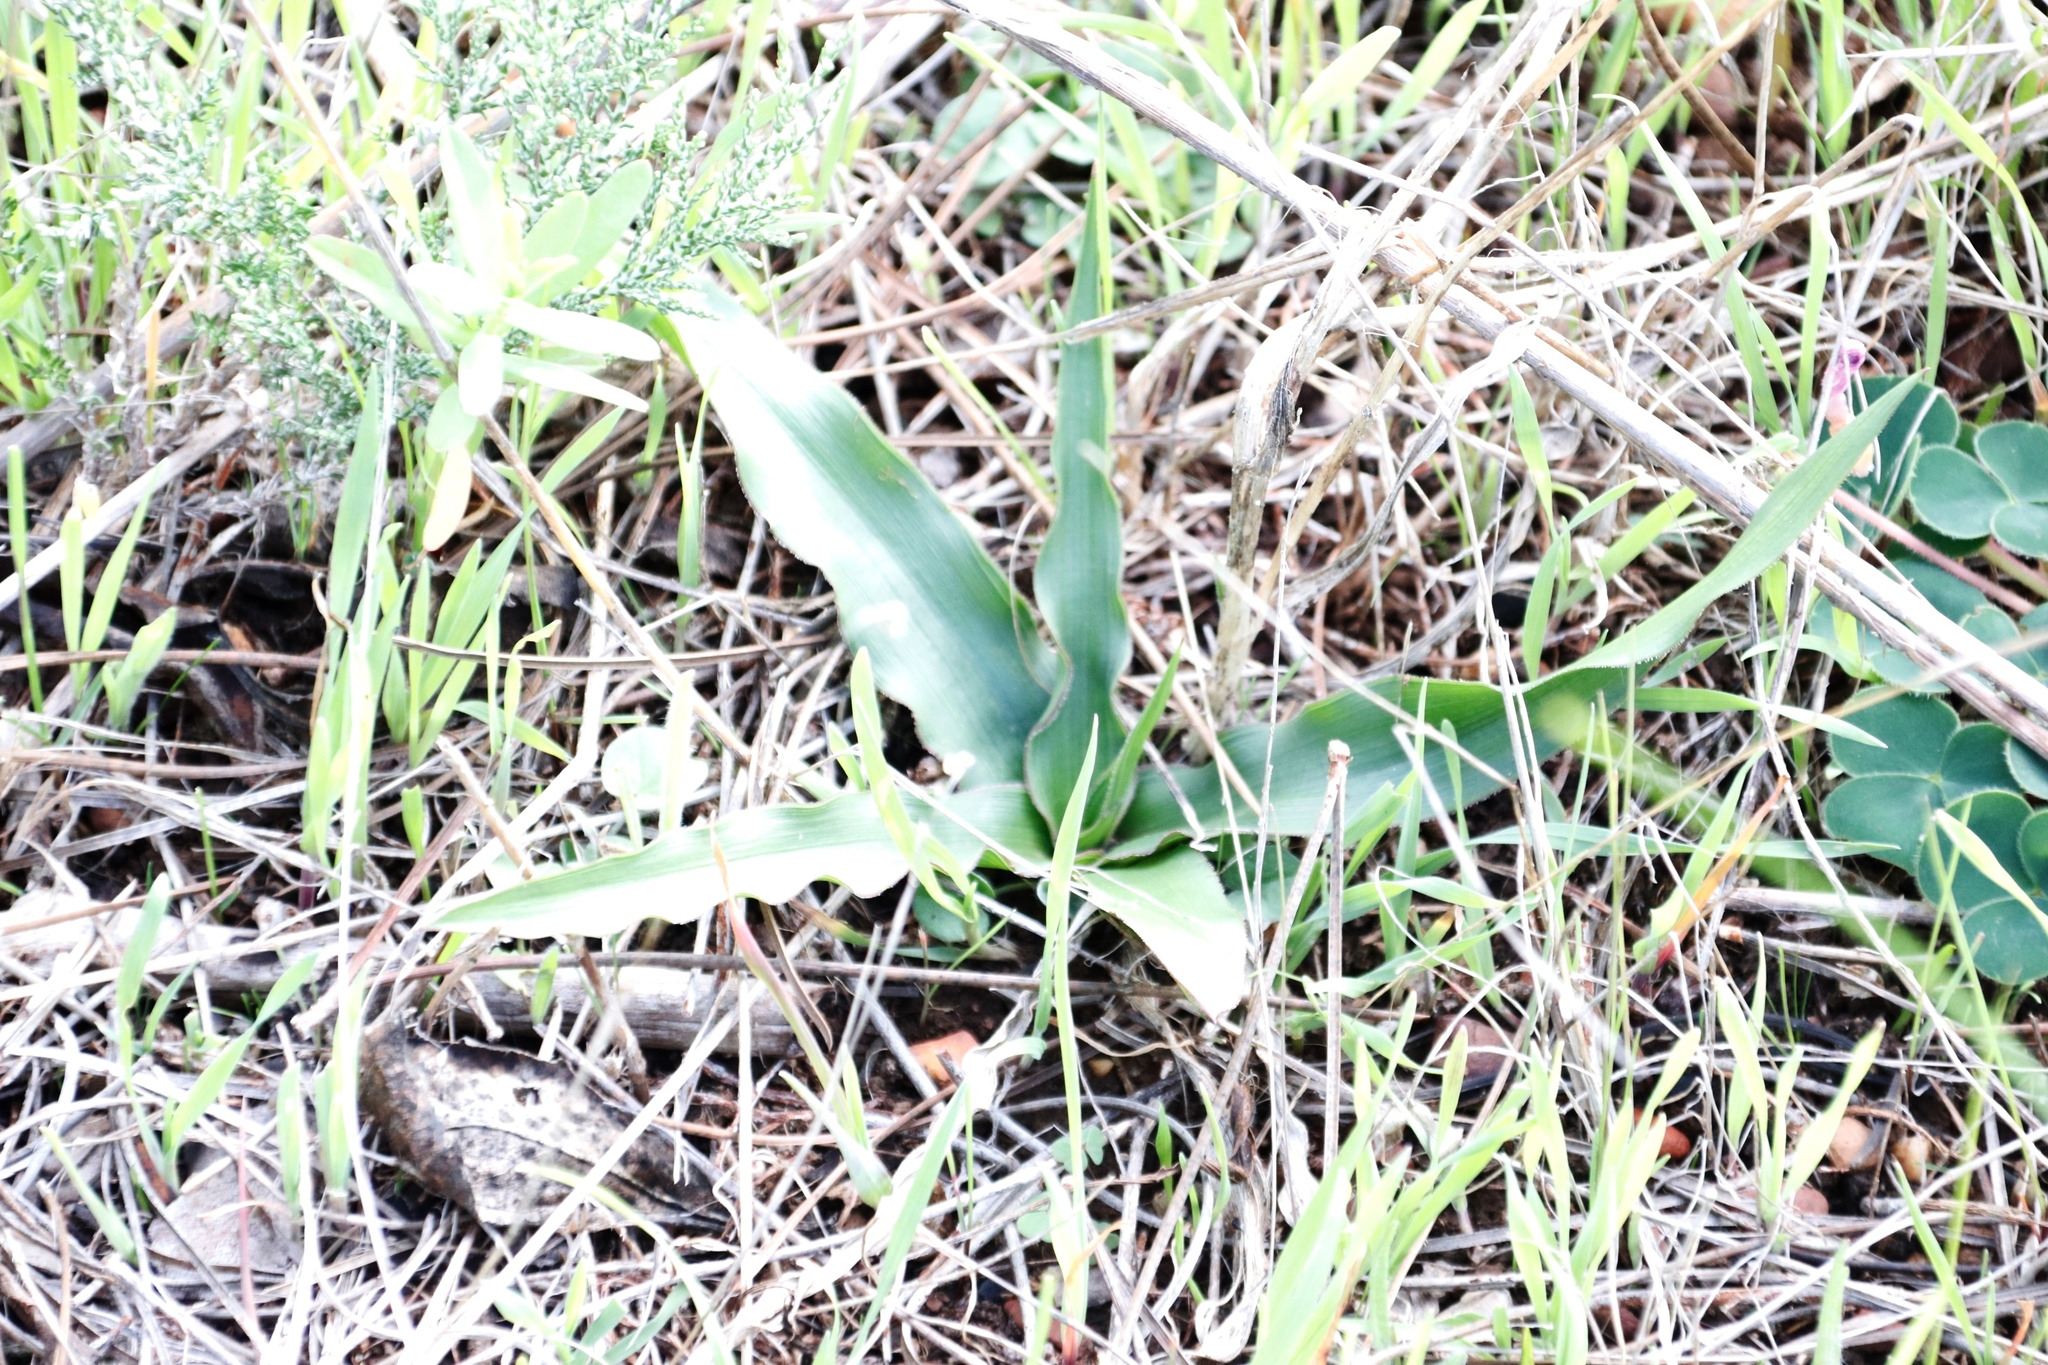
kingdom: Plantae
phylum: Tracheophyta
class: Liliopsida
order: Asparagales
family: Tecophilaeaceae
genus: Cyanella
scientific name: Cyanella hyacinthoides
